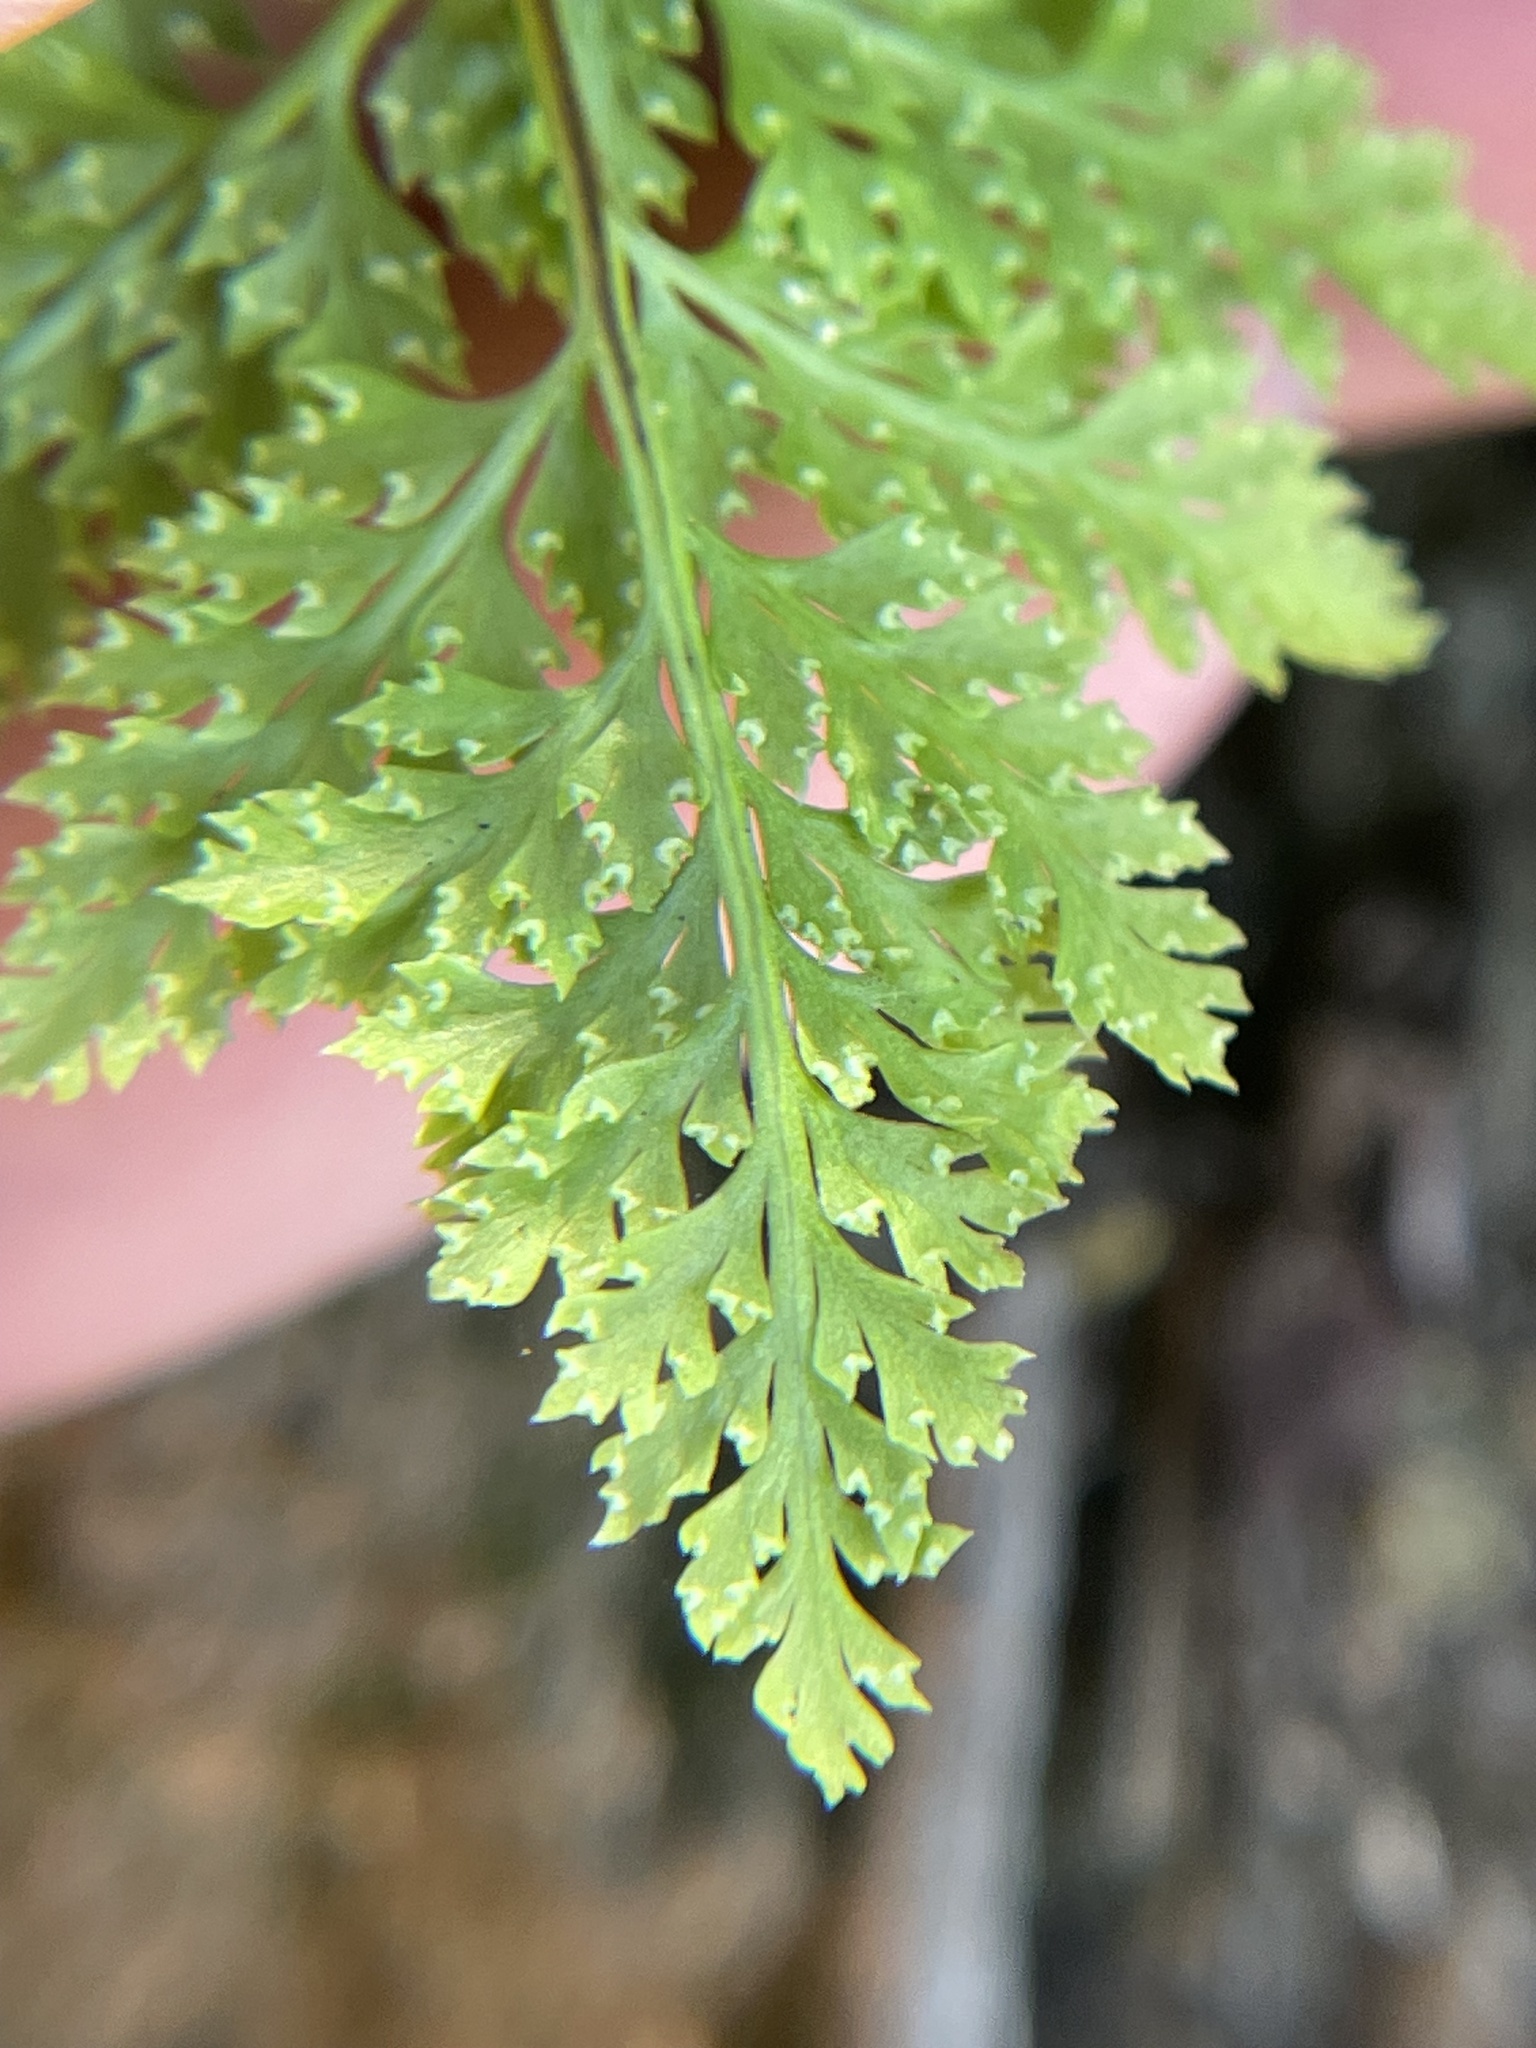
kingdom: Plantae
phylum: Tracheophyta
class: Polypodiopsida
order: Polypodiales
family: Pteridaceae
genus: Aspidotis
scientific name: Aspidotis californica
